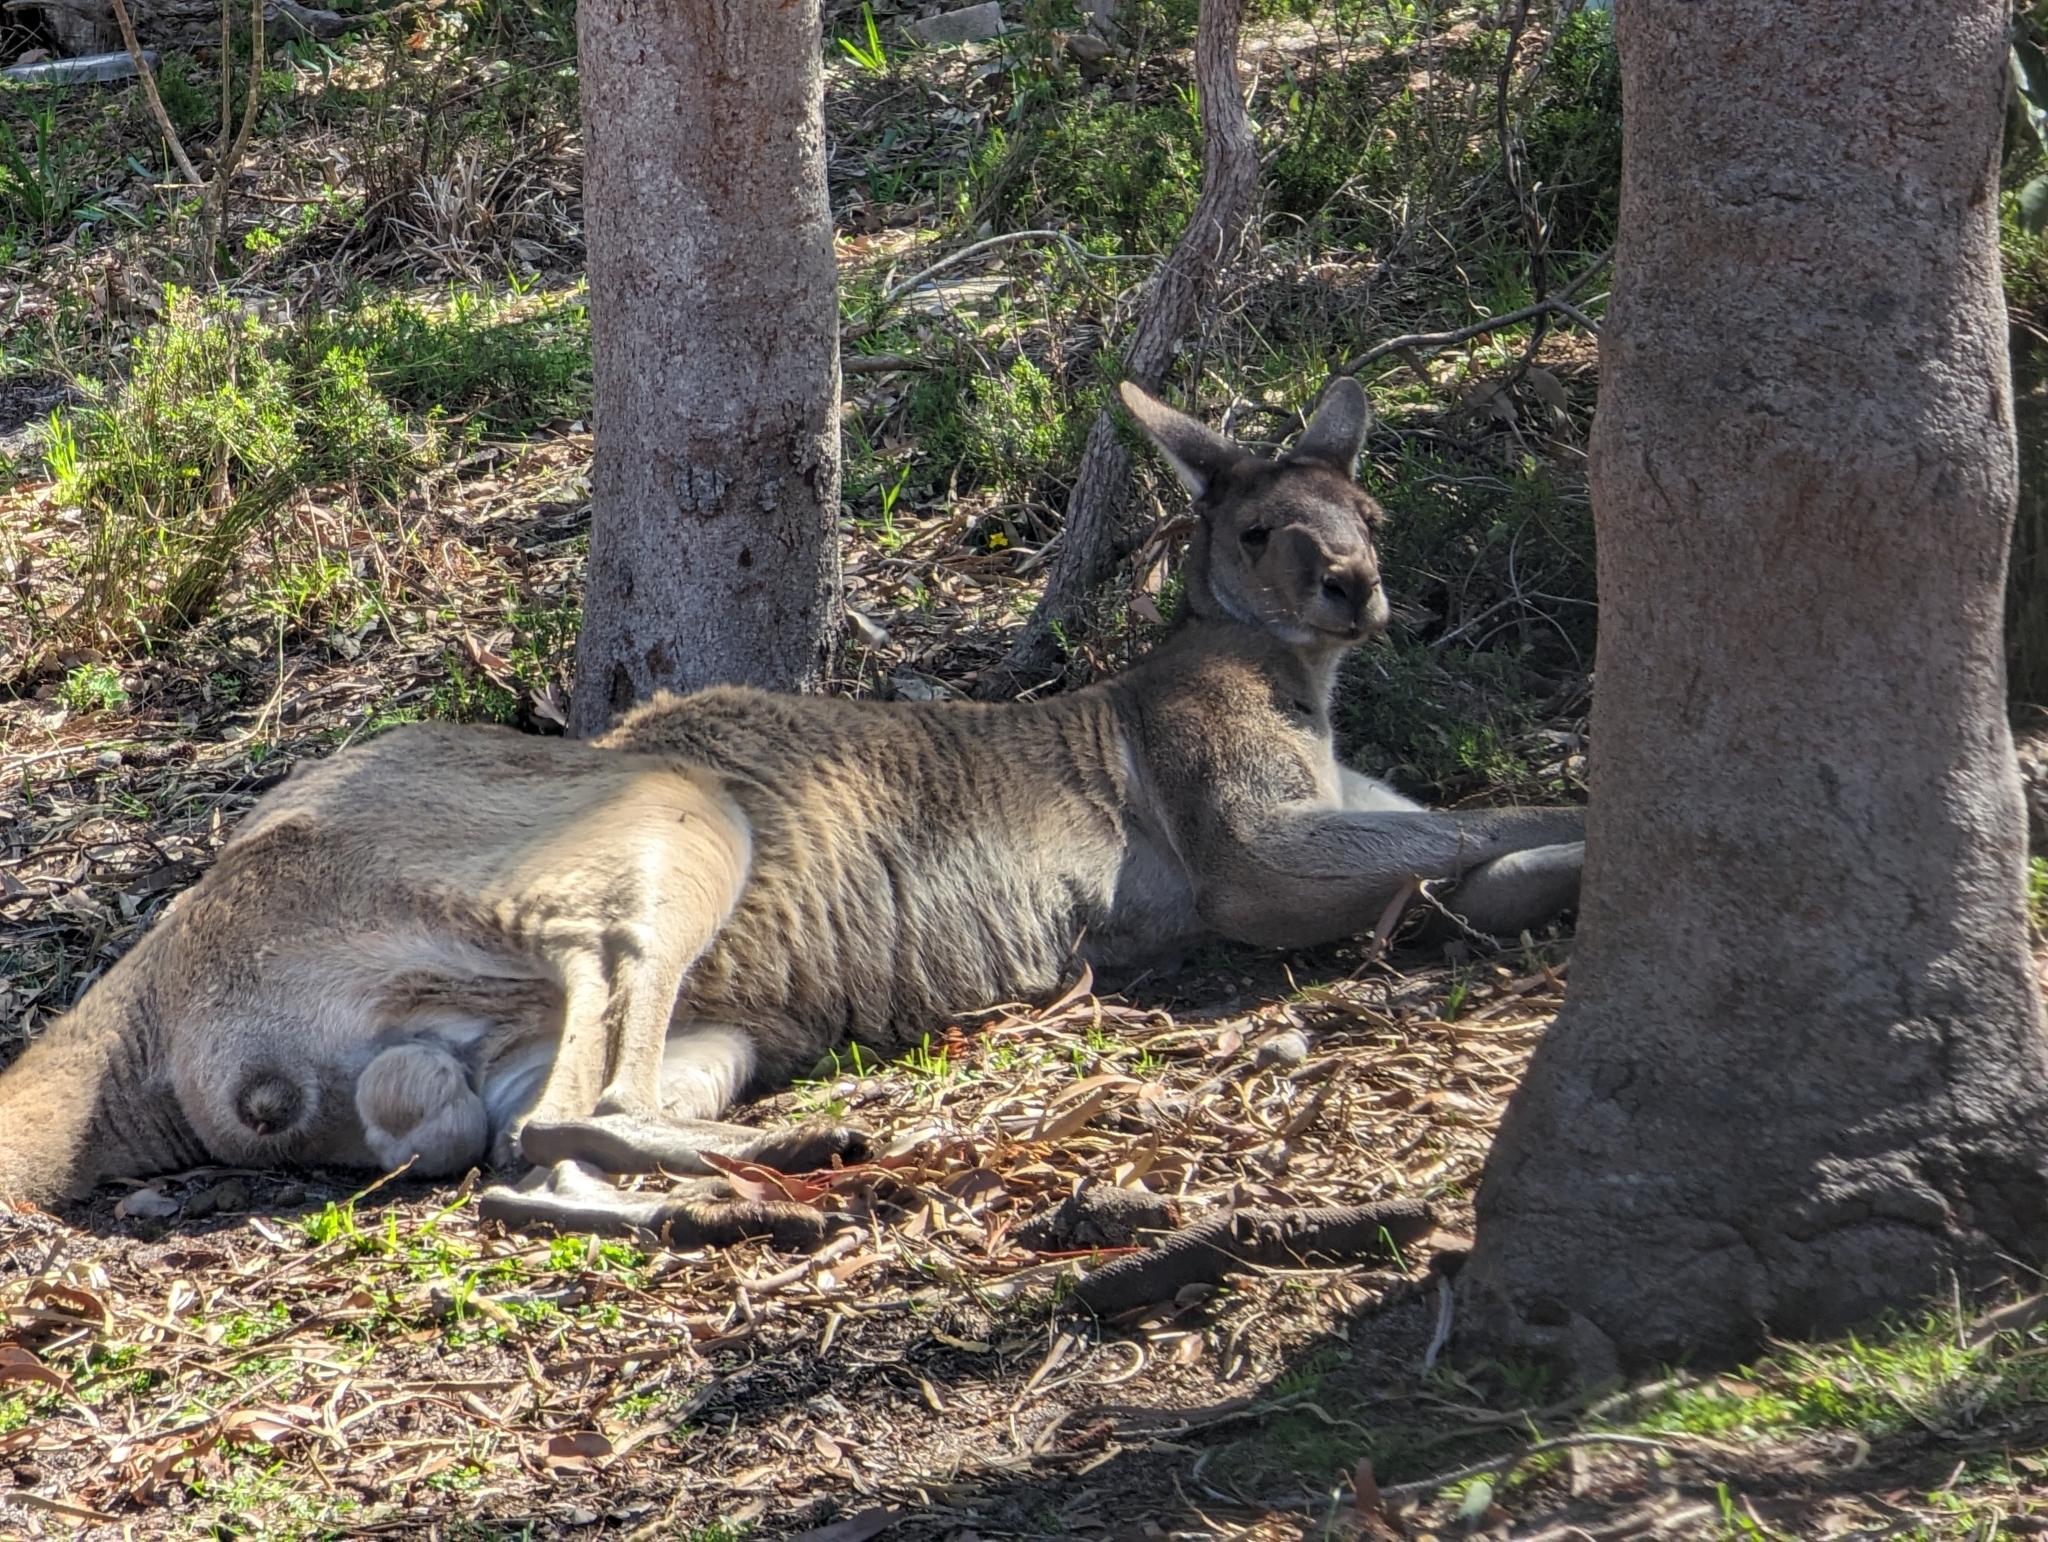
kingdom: Animalia
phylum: Chordata
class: Mammalia
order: Diprotodontia
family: Macropodidae
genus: Macropus
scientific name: Macropus fuliginosus
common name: Western grey kangaroo
